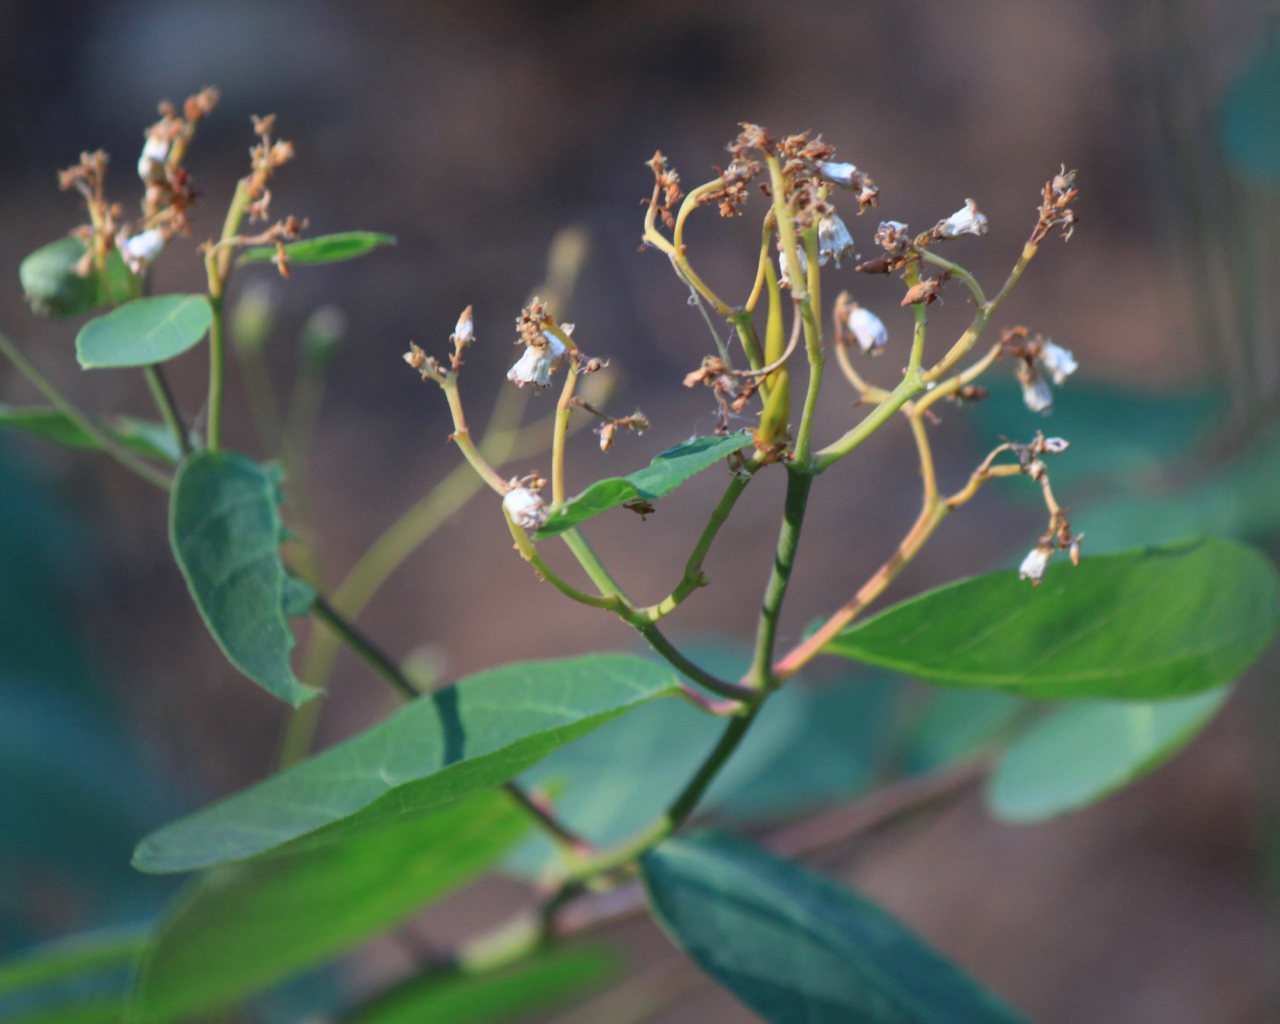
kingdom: Plantae
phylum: Tracheophyta
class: Magnoliopsida
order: Gentianales
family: Apocynaceae
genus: Apocynum
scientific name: Apocynum androsaemifolium
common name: Spreading dogbane
